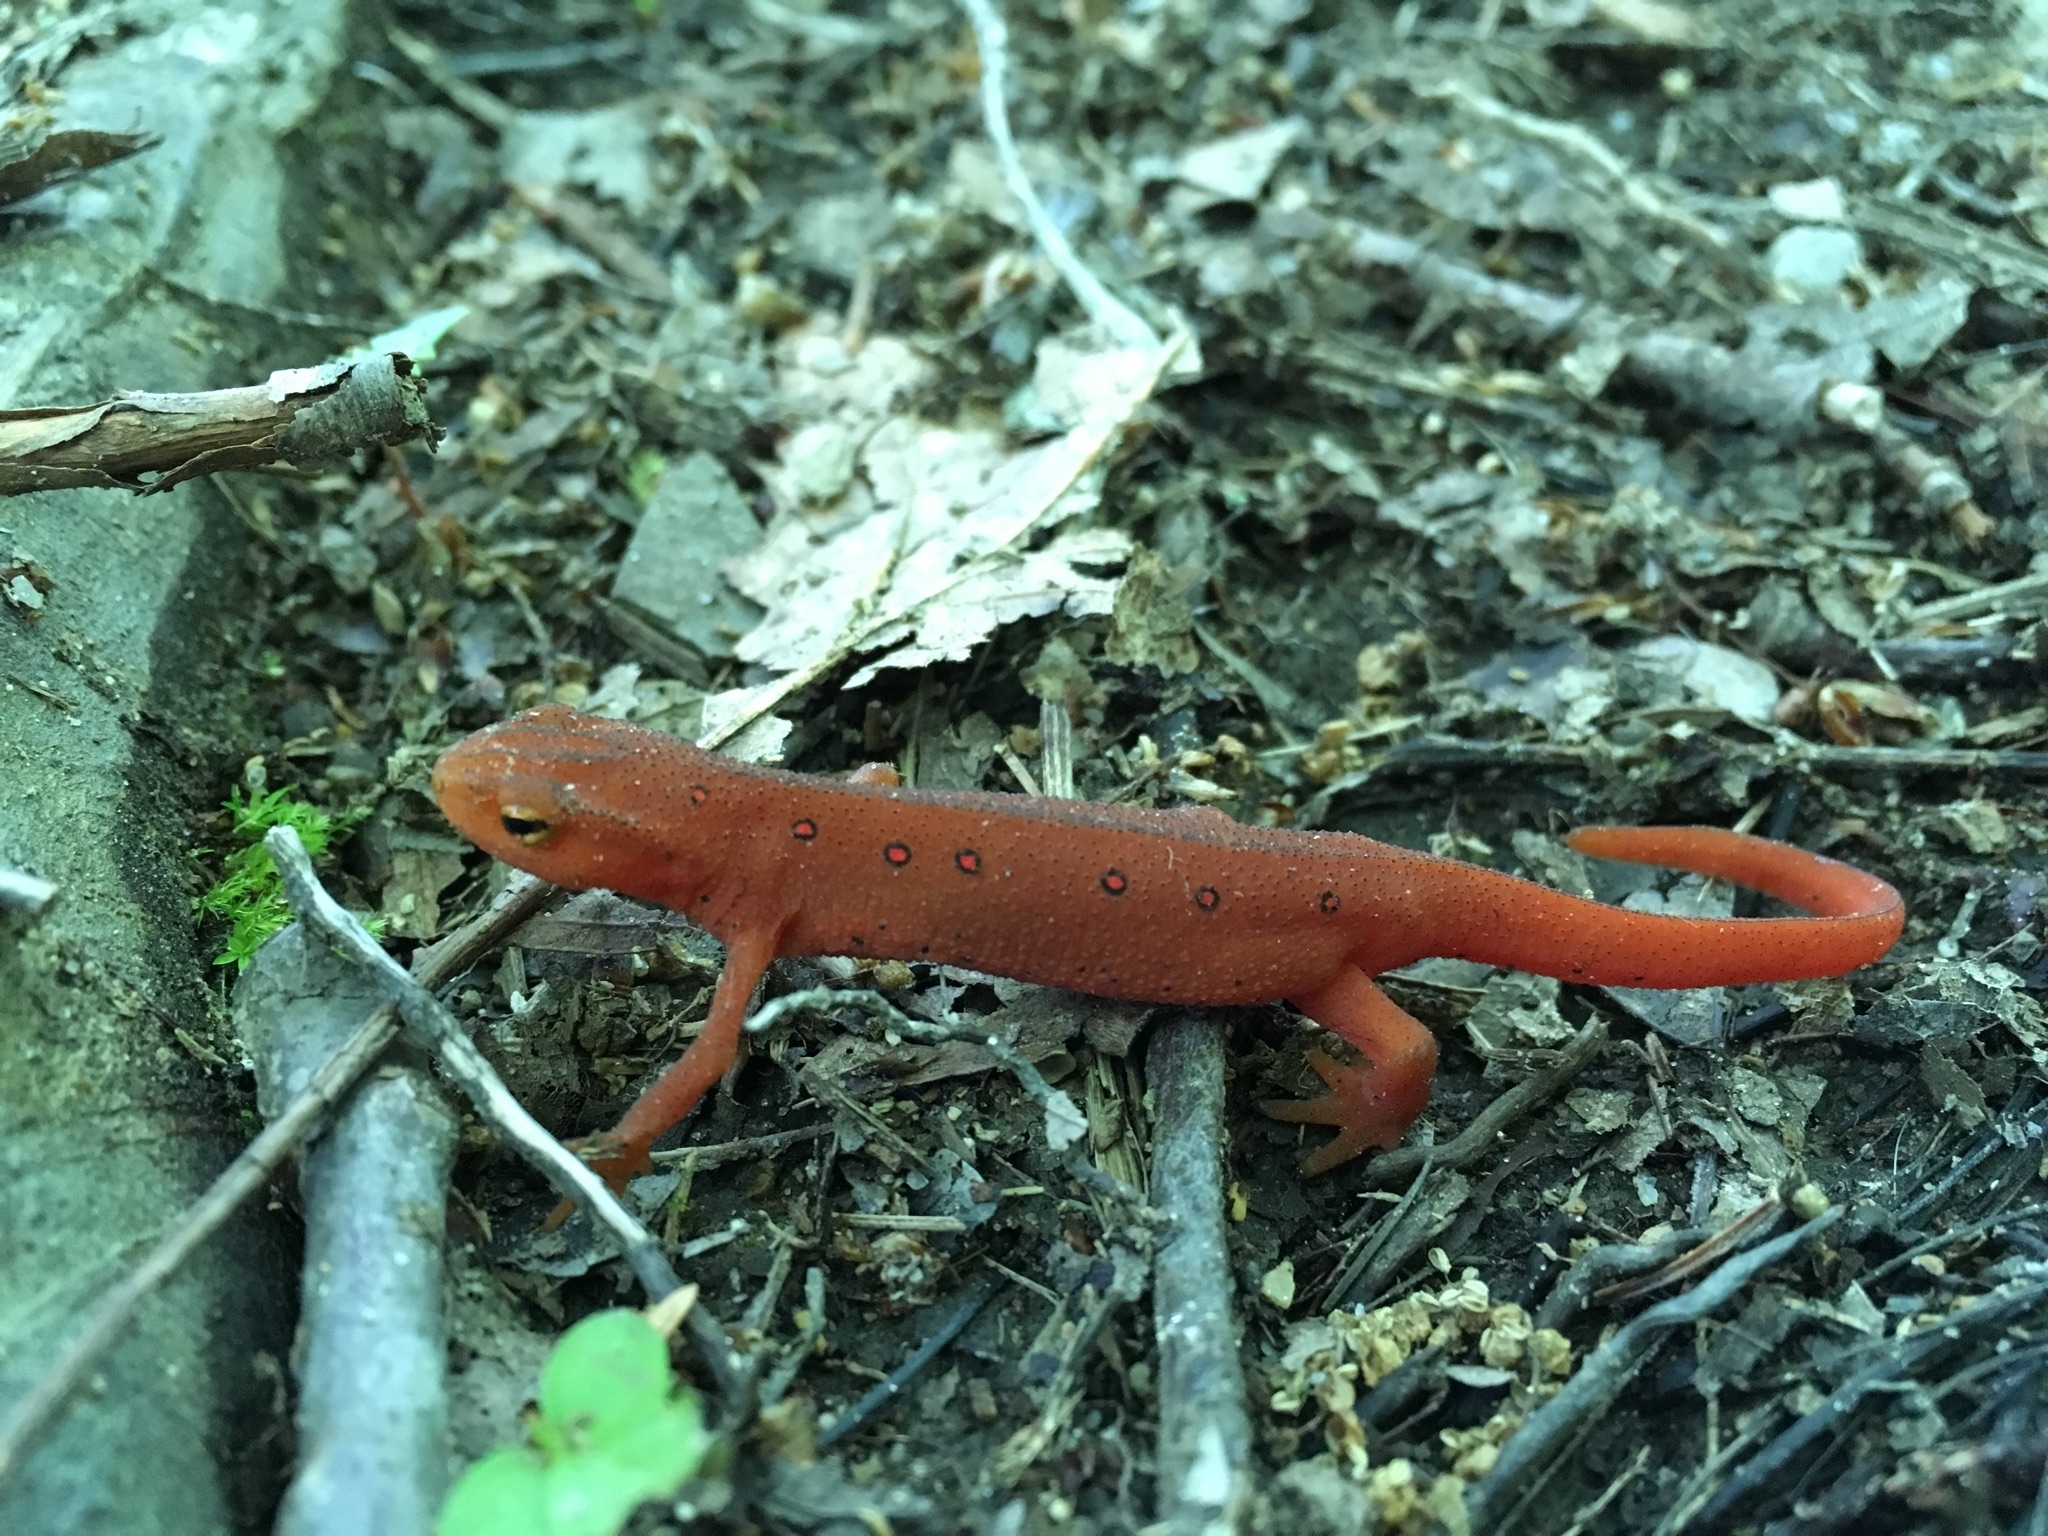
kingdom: Animalia
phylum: Chordata
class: Amphibia
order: Caudata
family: Salamandridae
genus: Notophthalmus
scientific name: Notophthalmus viridescens
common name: Eastern newt
